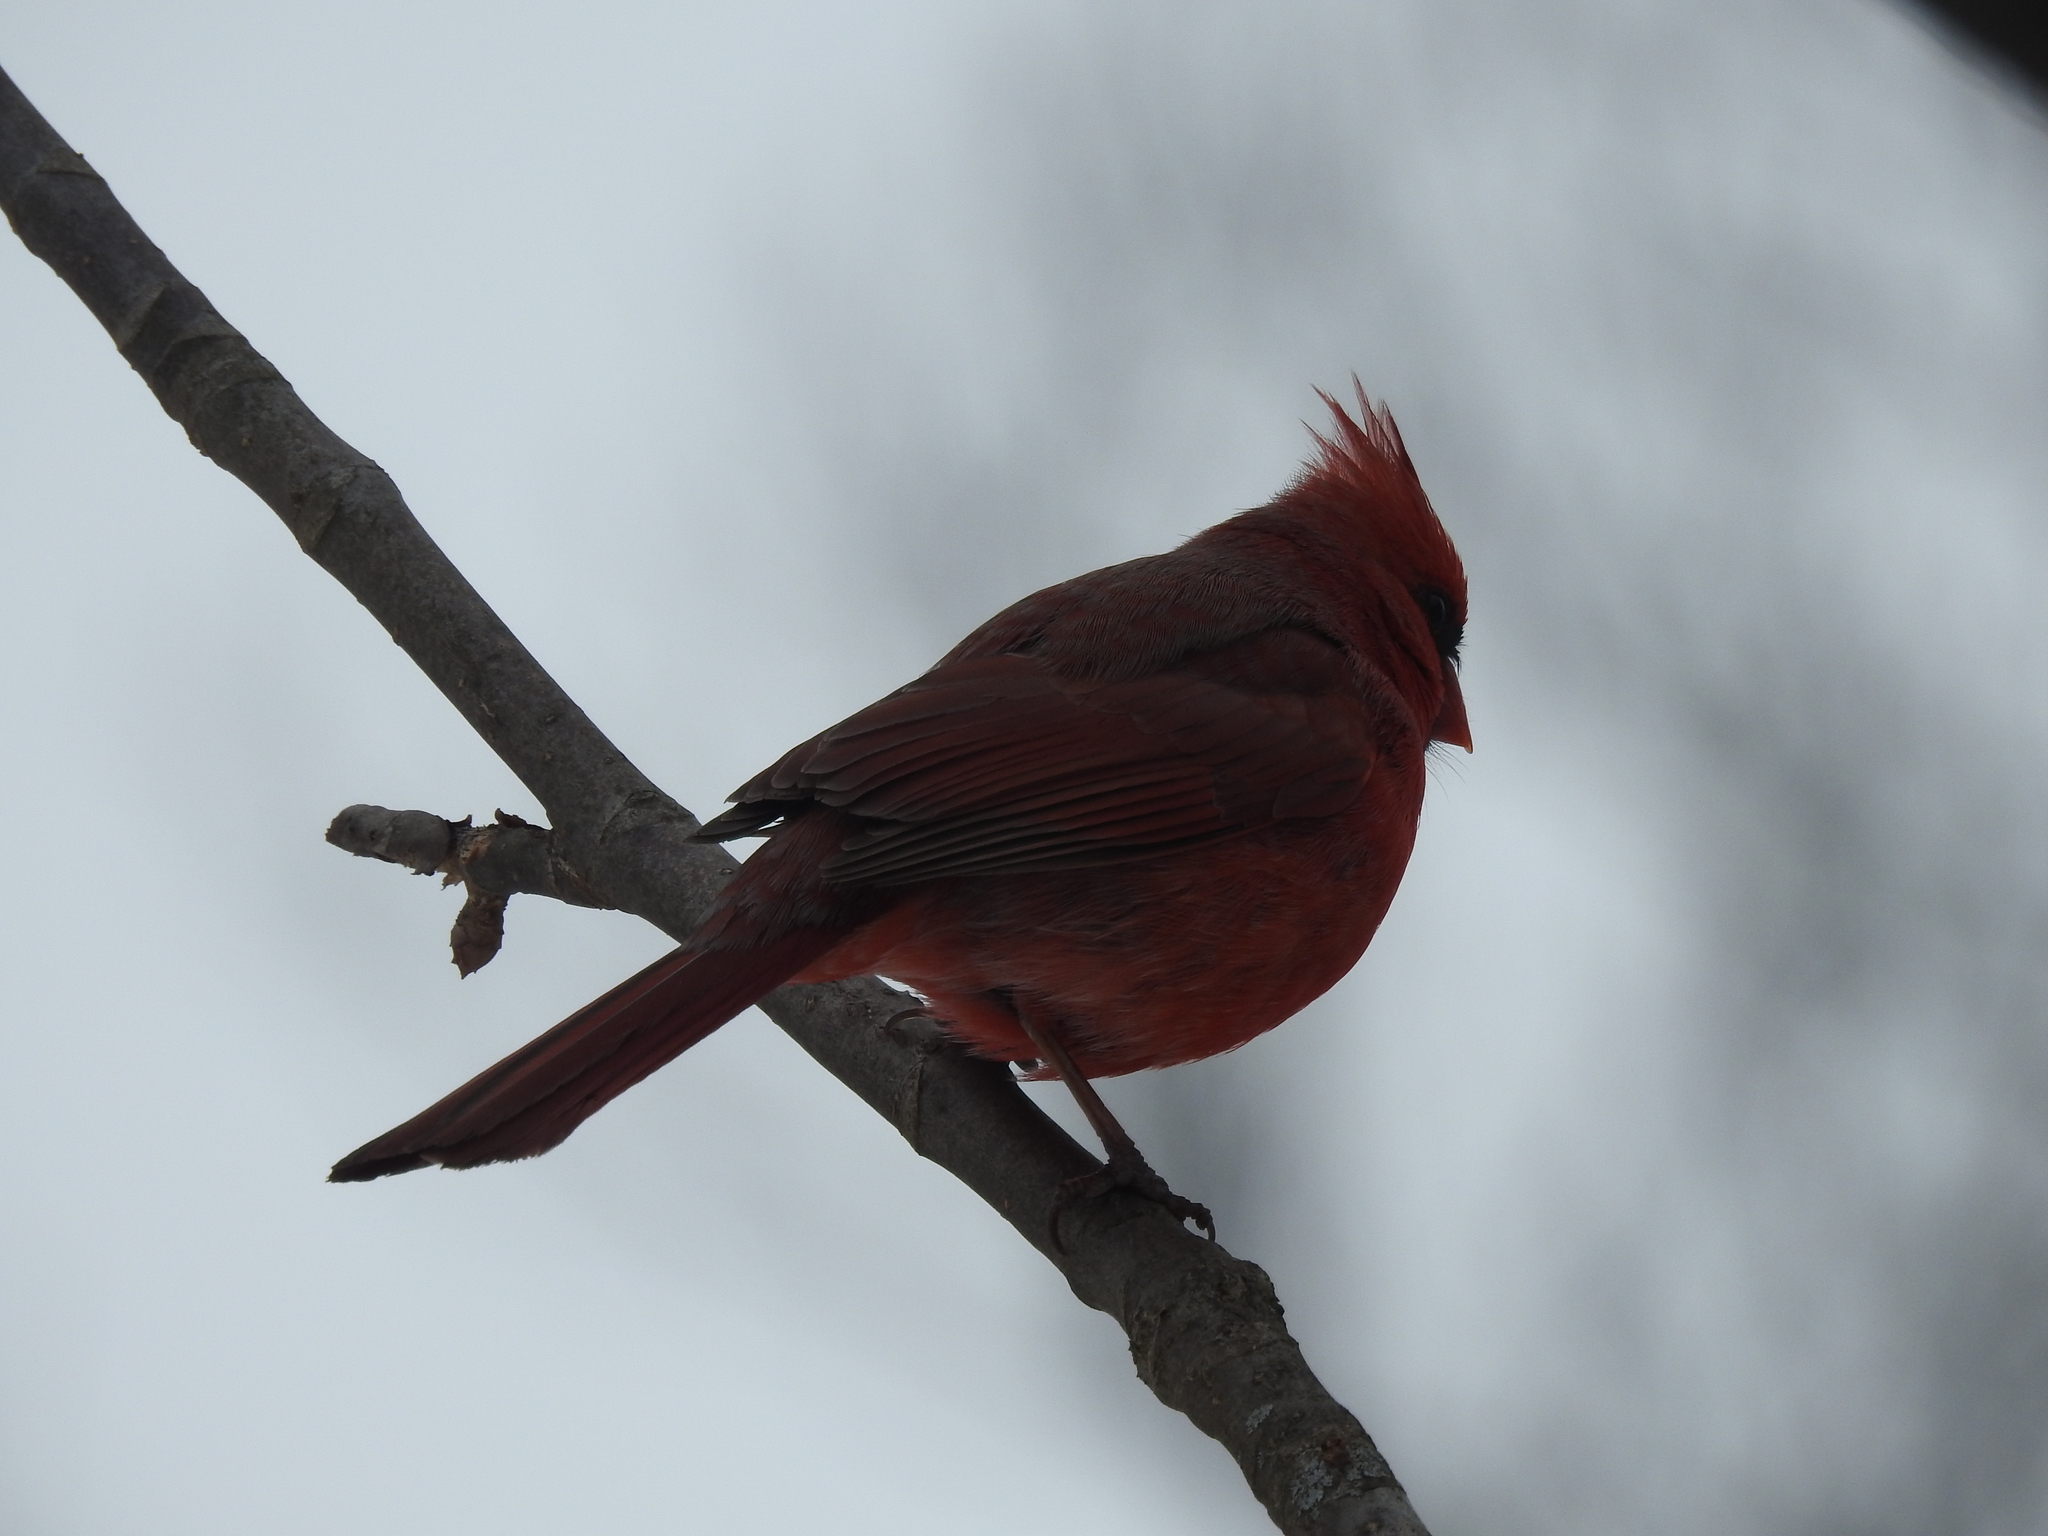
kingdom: Animalia
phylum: Chordata
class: Aves
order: Passeriformes
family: Cardinalidae
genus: Cardinalis
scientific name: Cardinalis cardinalis
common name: Northern cardinal
